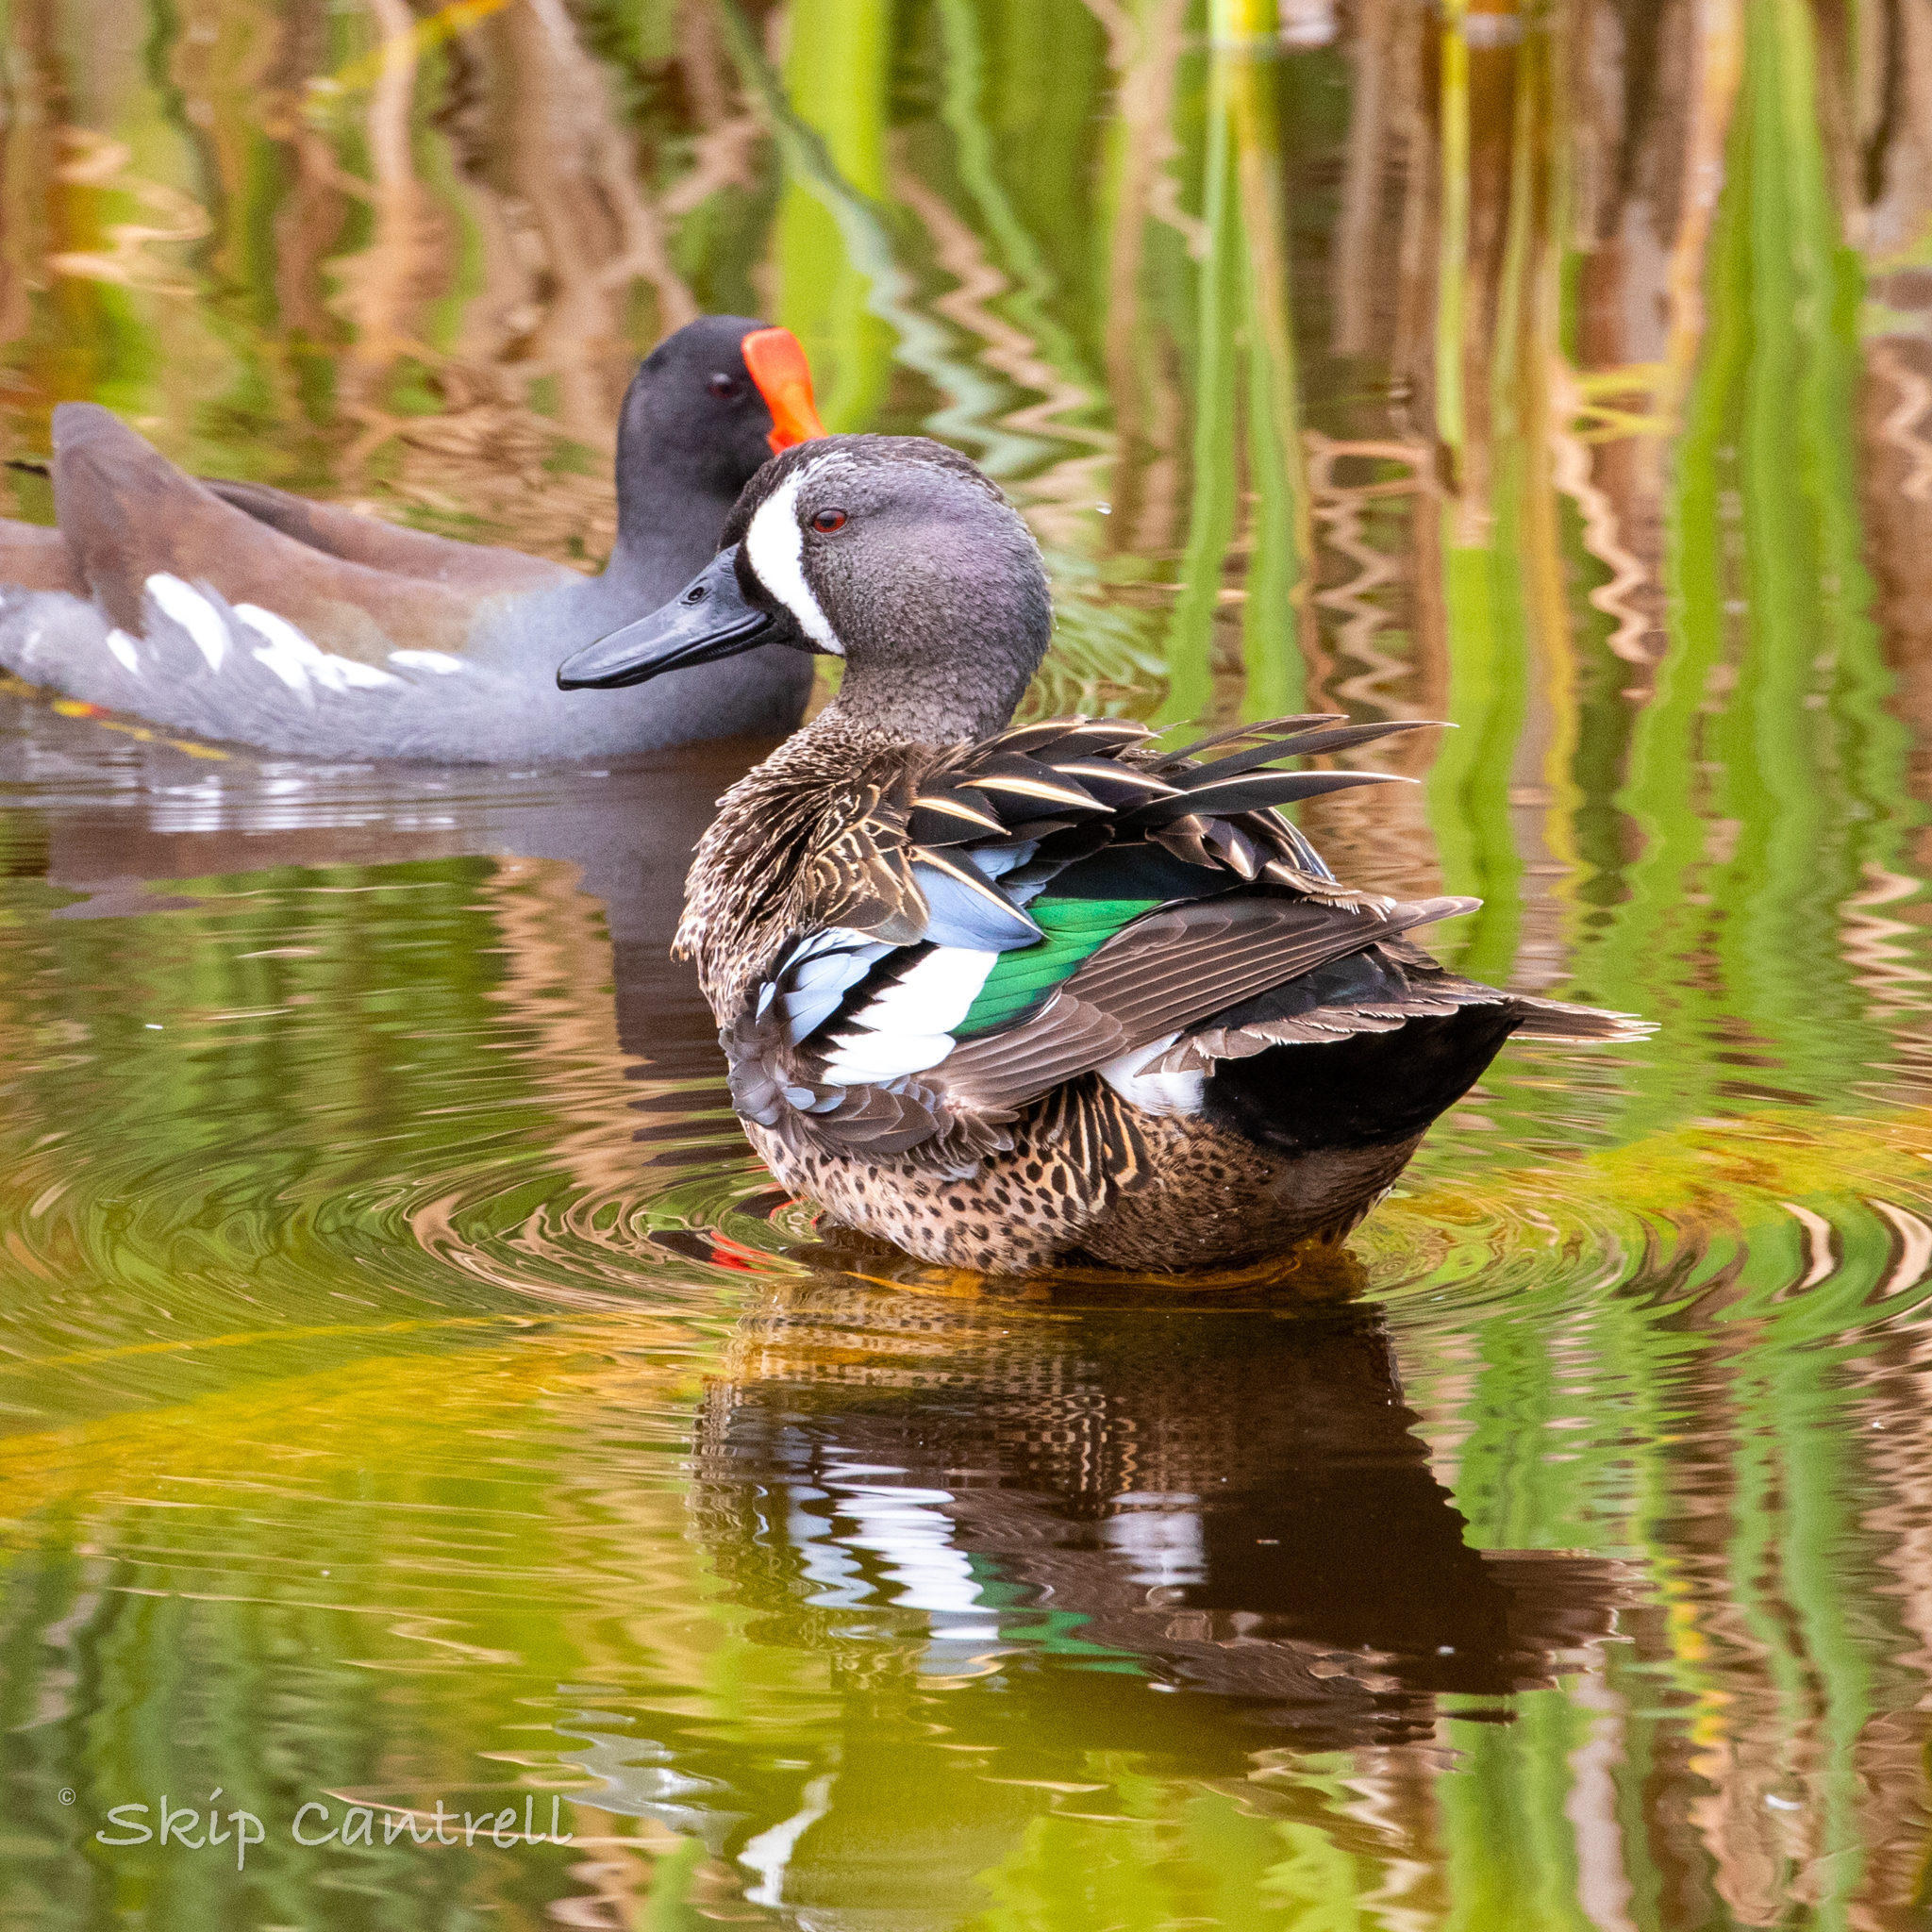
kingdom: Animalia
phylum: Chordata
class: Aves
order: Anseriformes
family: Anatidae
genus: Spatula
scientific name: Spatula discors
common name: Blue-winged teal
